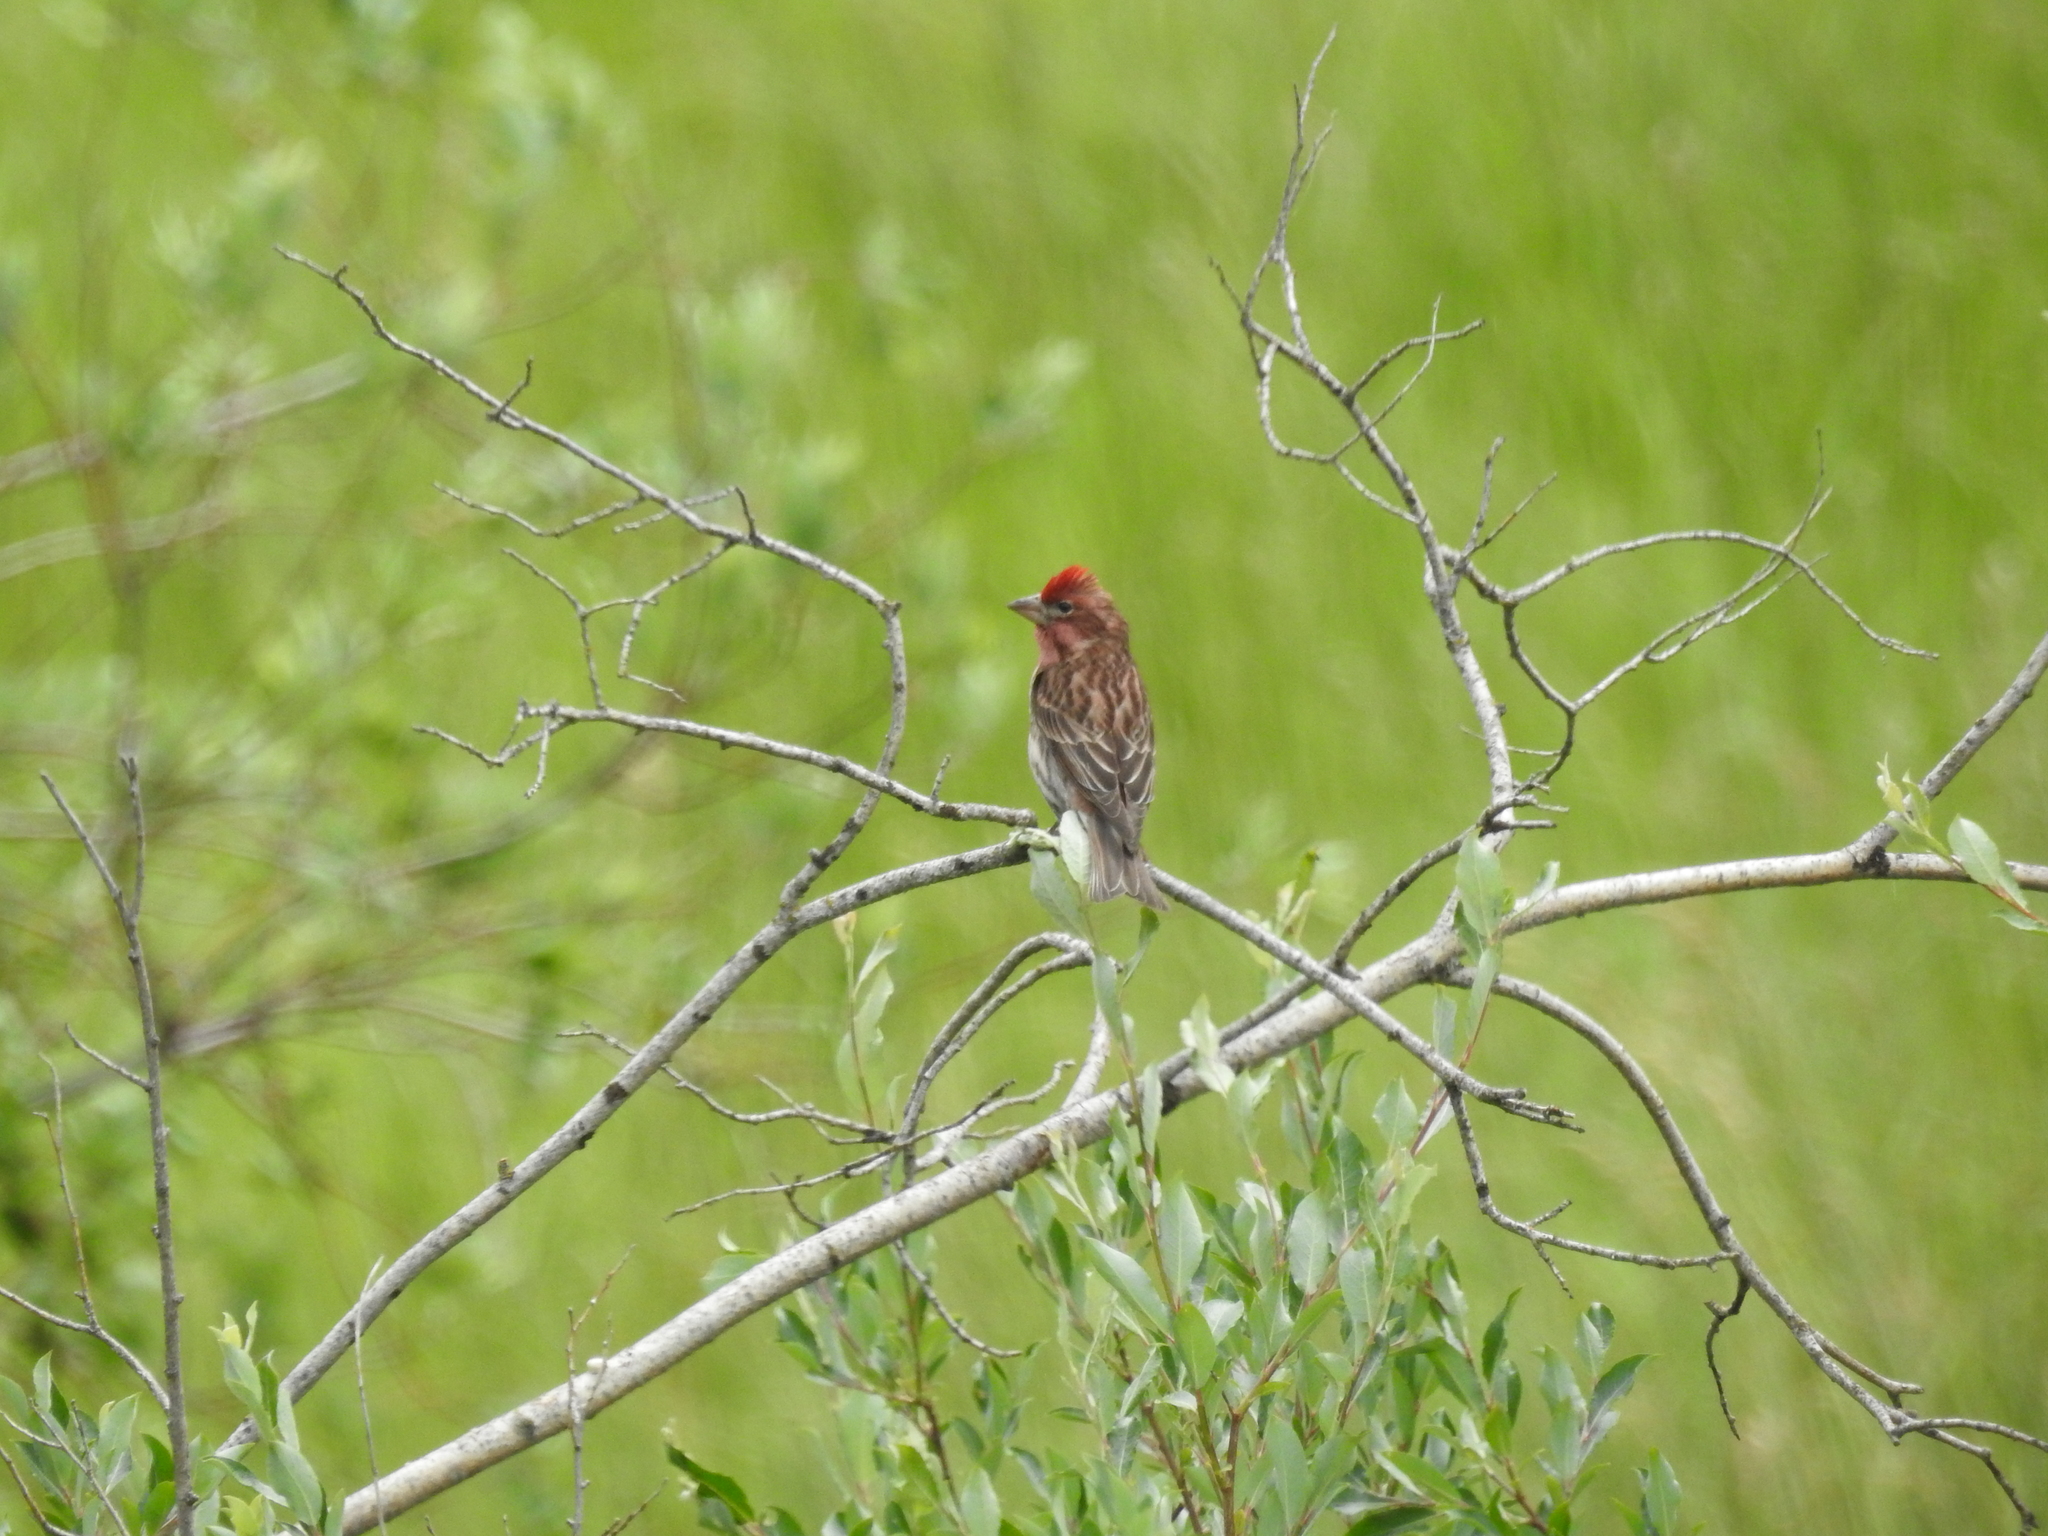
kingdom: Animalia
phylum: Chordata
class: Aves
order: Passeriformes
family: Fringillidae
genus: Haemorhous
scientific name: Haemorhous cassinii
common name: Cassin's finch
